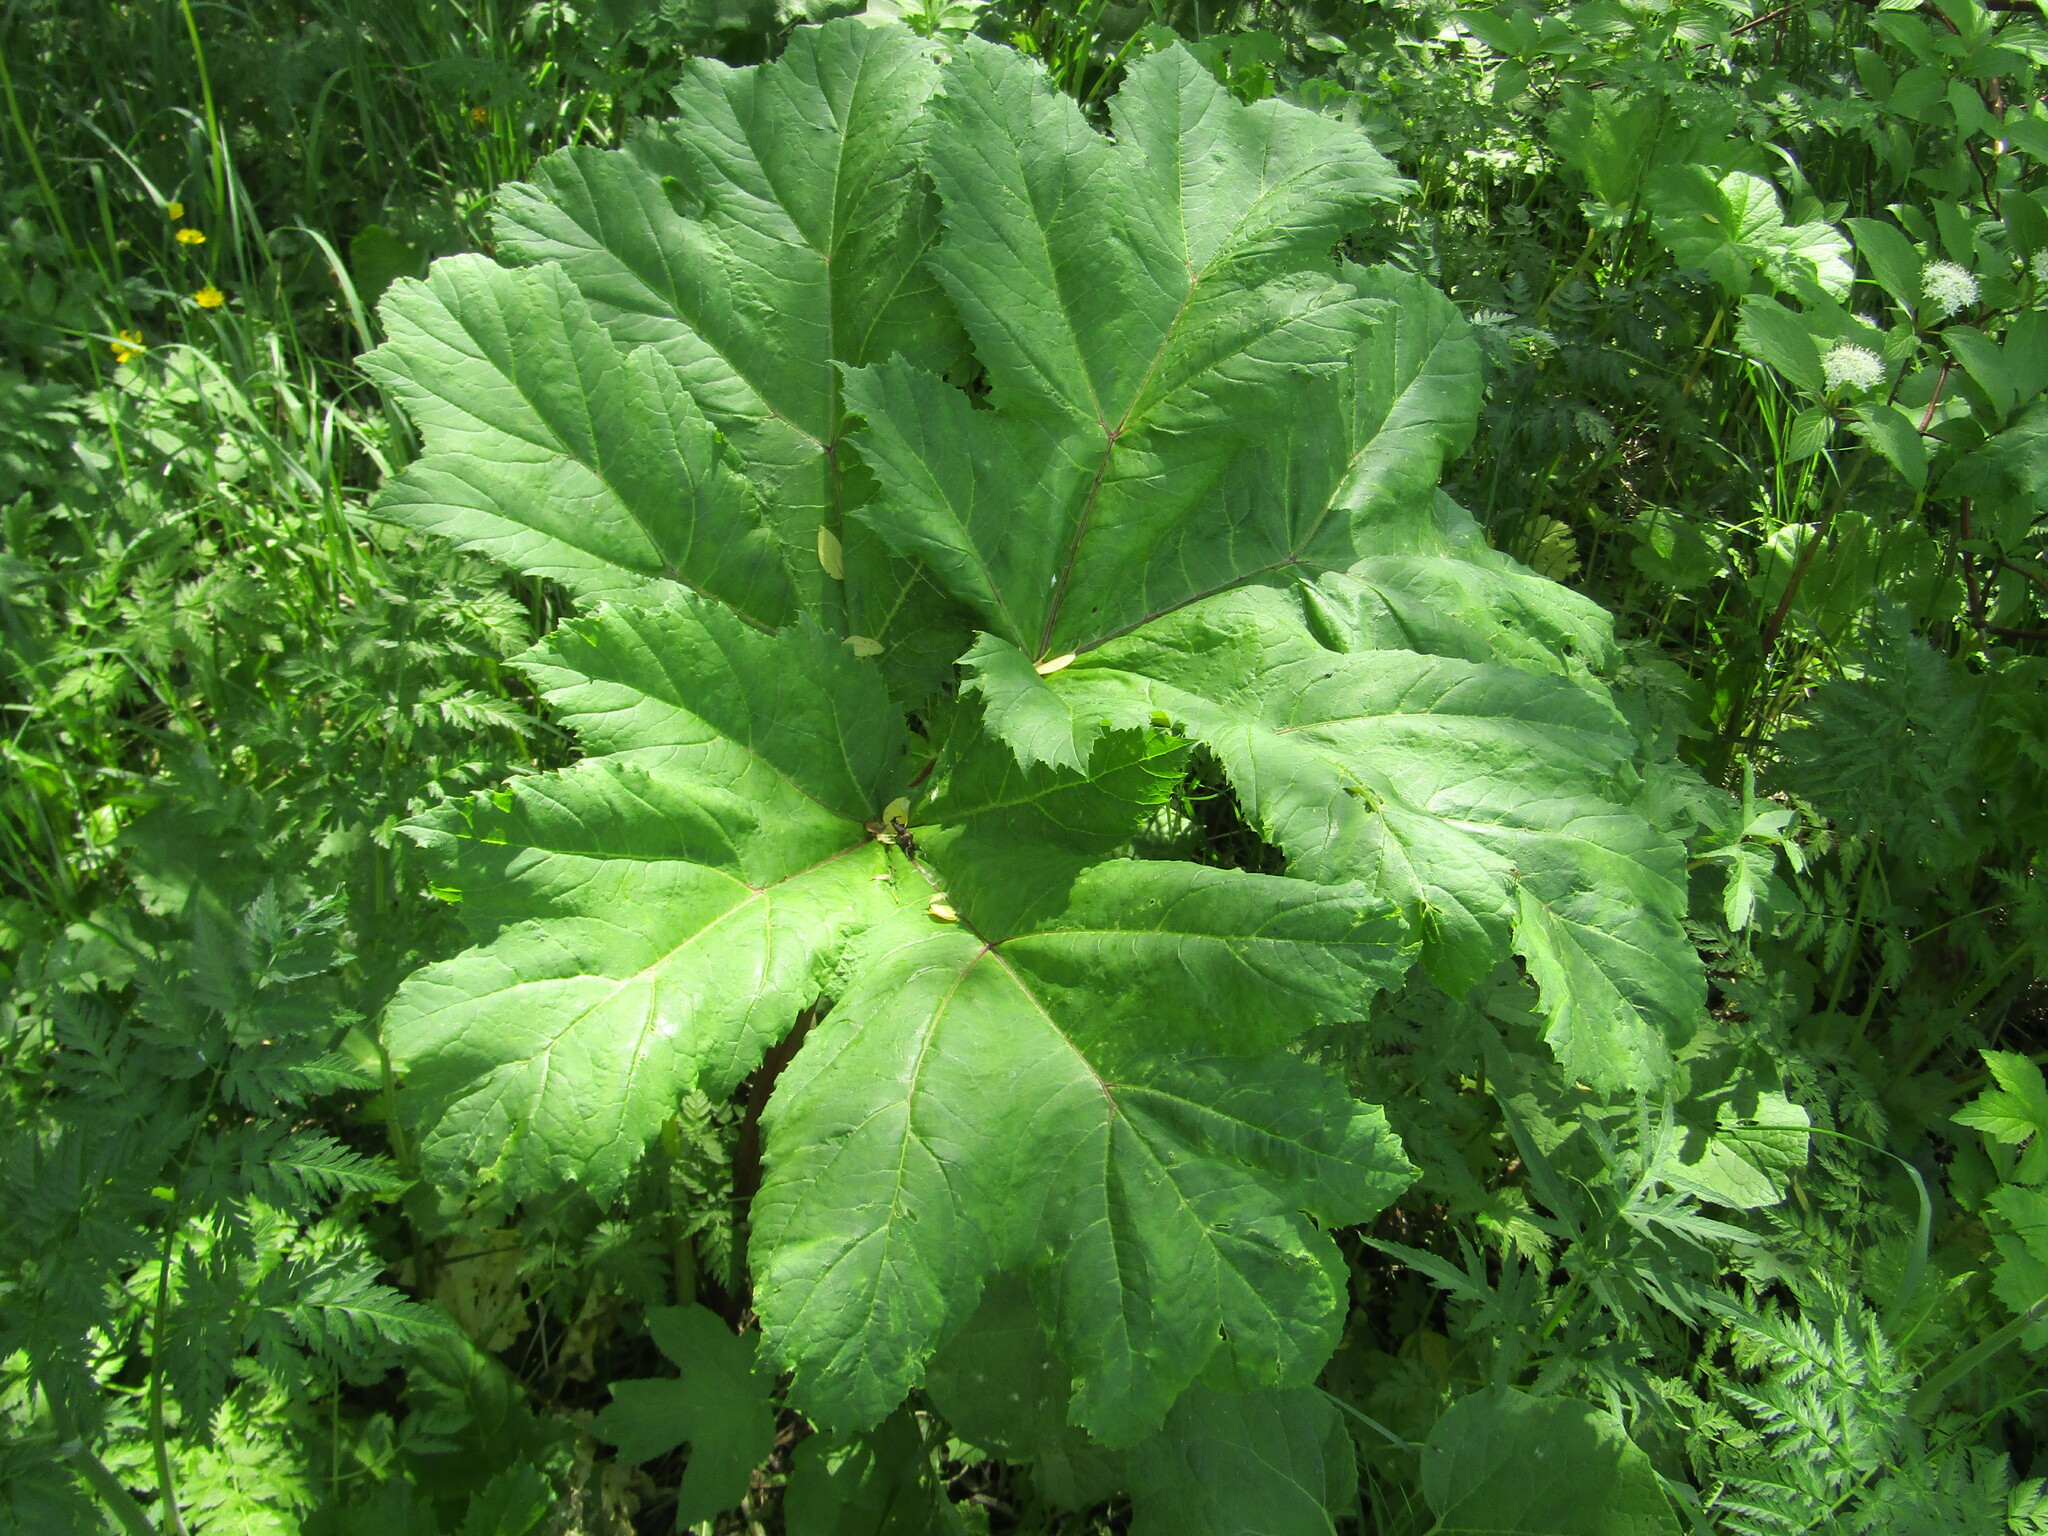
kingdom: Plantae
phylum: Tracheophyta
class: Magnoliopsida
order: Apiales
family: Apiaceae
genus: Heracleum
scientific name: Heracleum sosnowskyi
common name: Sosnowsky's hogweed
